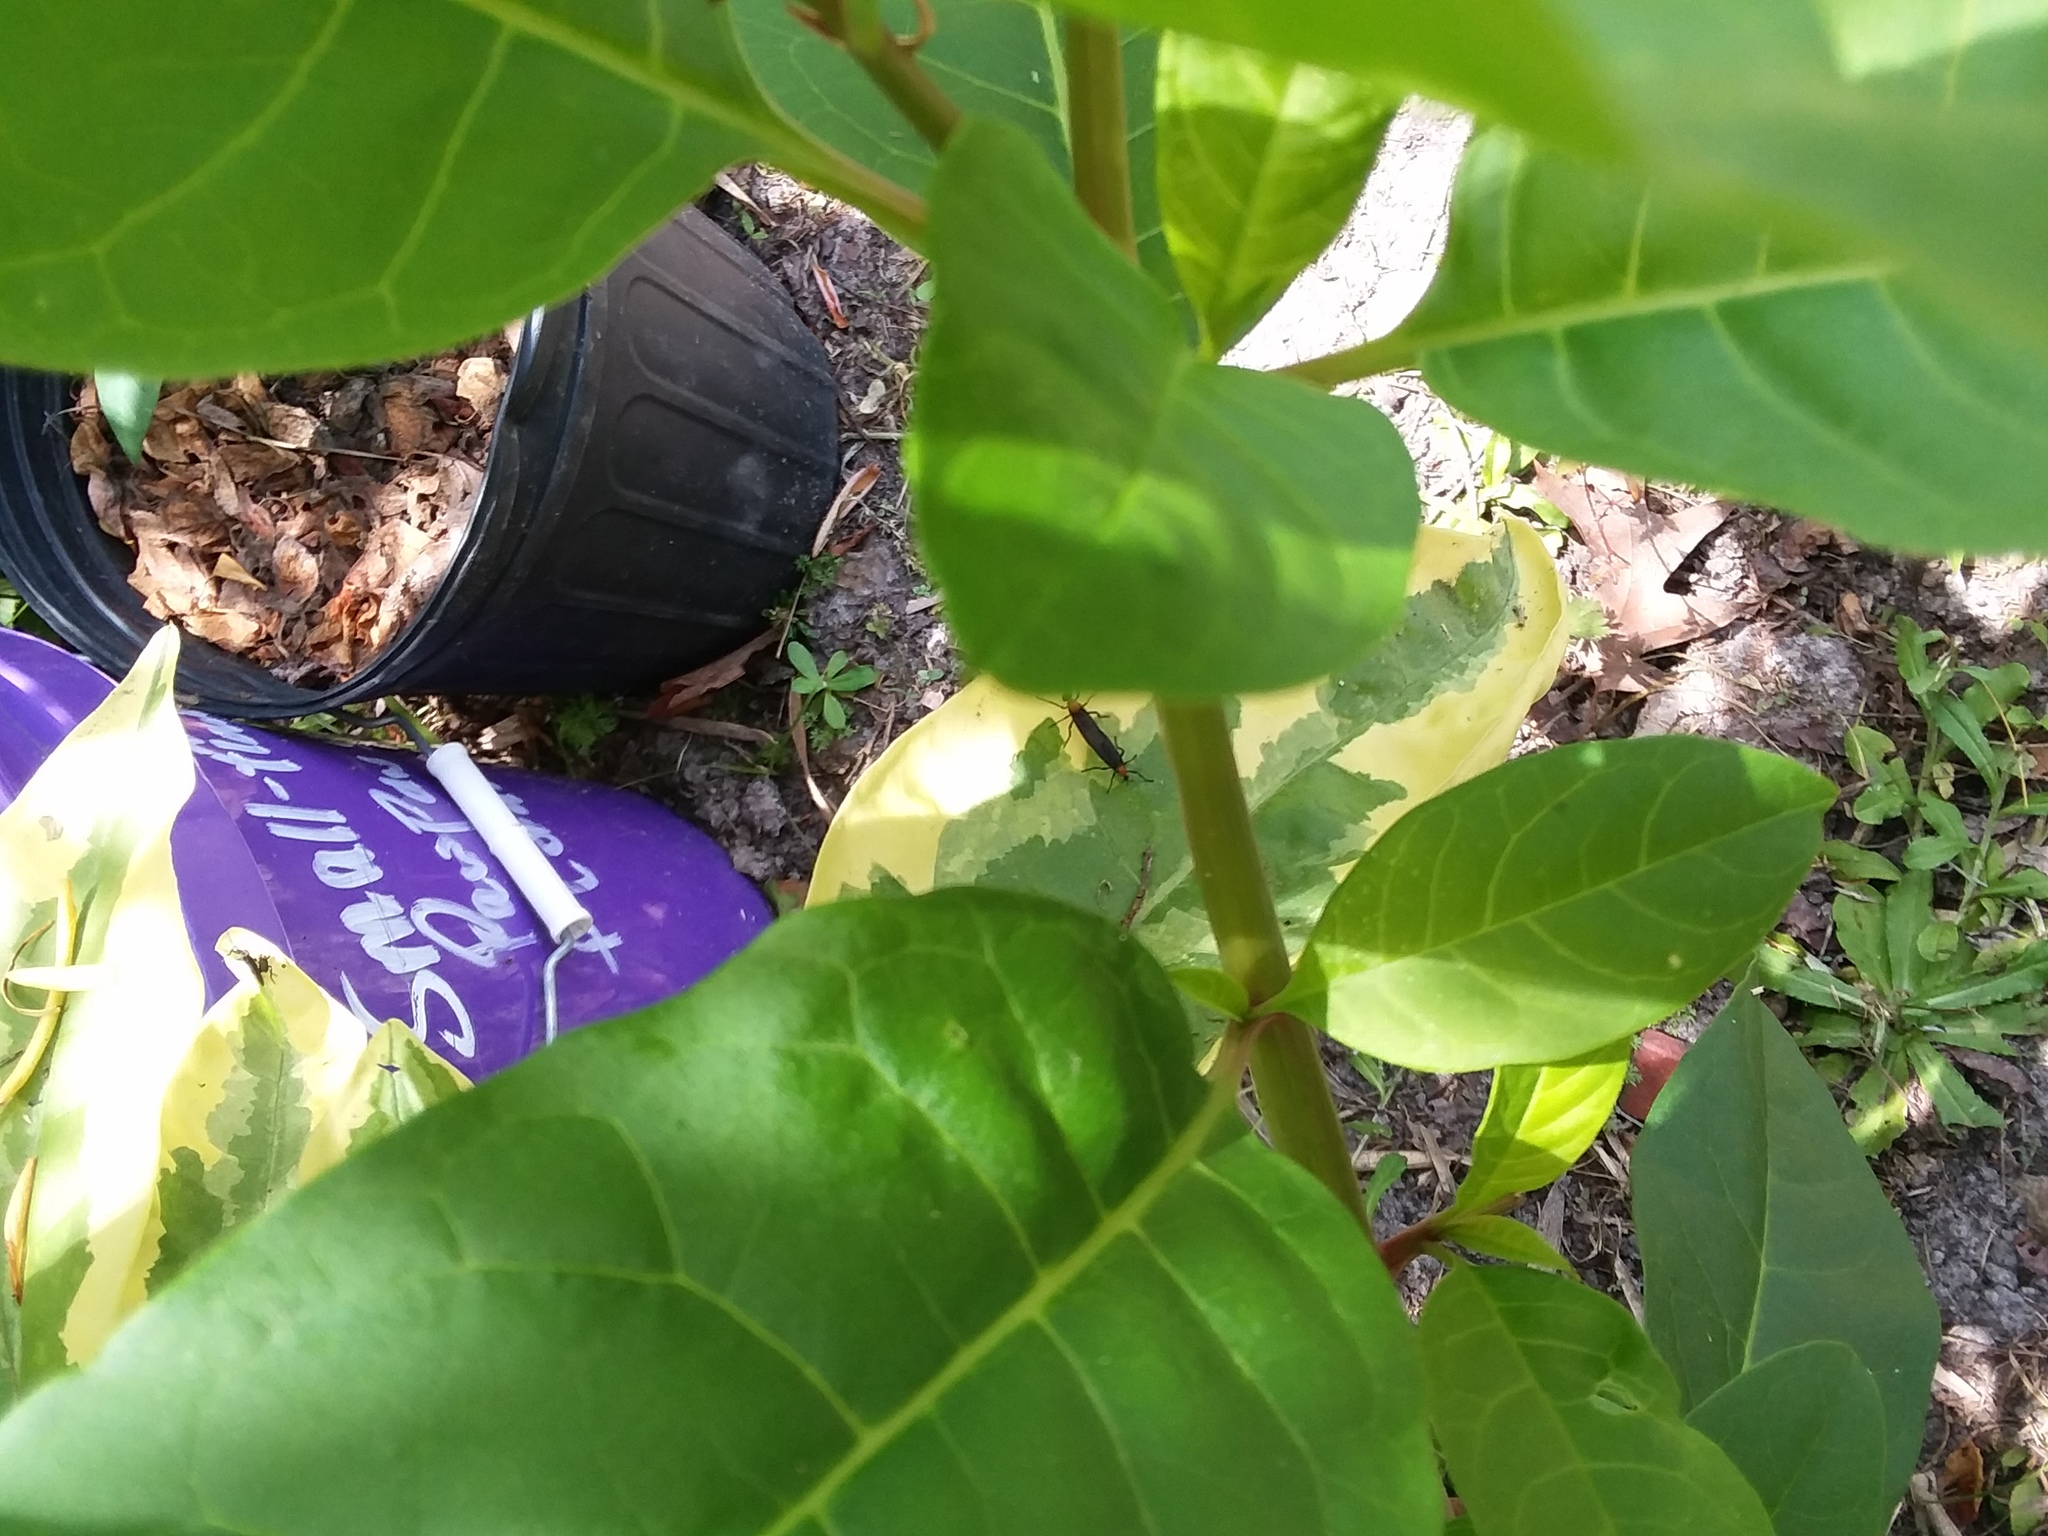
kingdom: Animalia
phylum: Arthropoda
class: Insecta
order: Diptera
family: Bibionidae
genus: Plecia
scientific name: Plecia nearctica
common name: March fly
